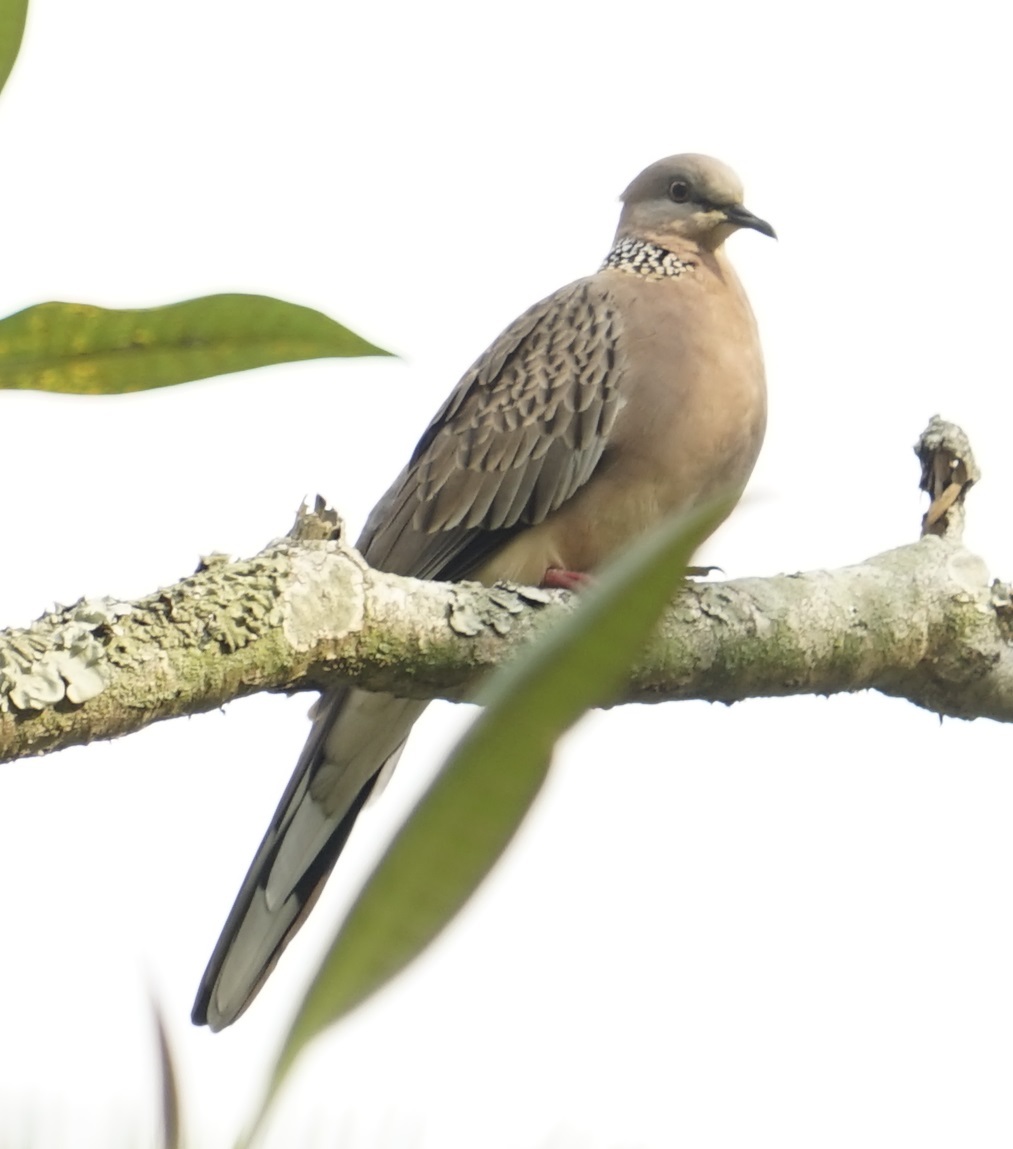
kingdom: Animalia
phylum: Chordata
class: Aves
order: Columbiformes
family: Columbidae
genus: Spilopelia
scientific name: Spilopelia chinensis
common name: Spotted dove
